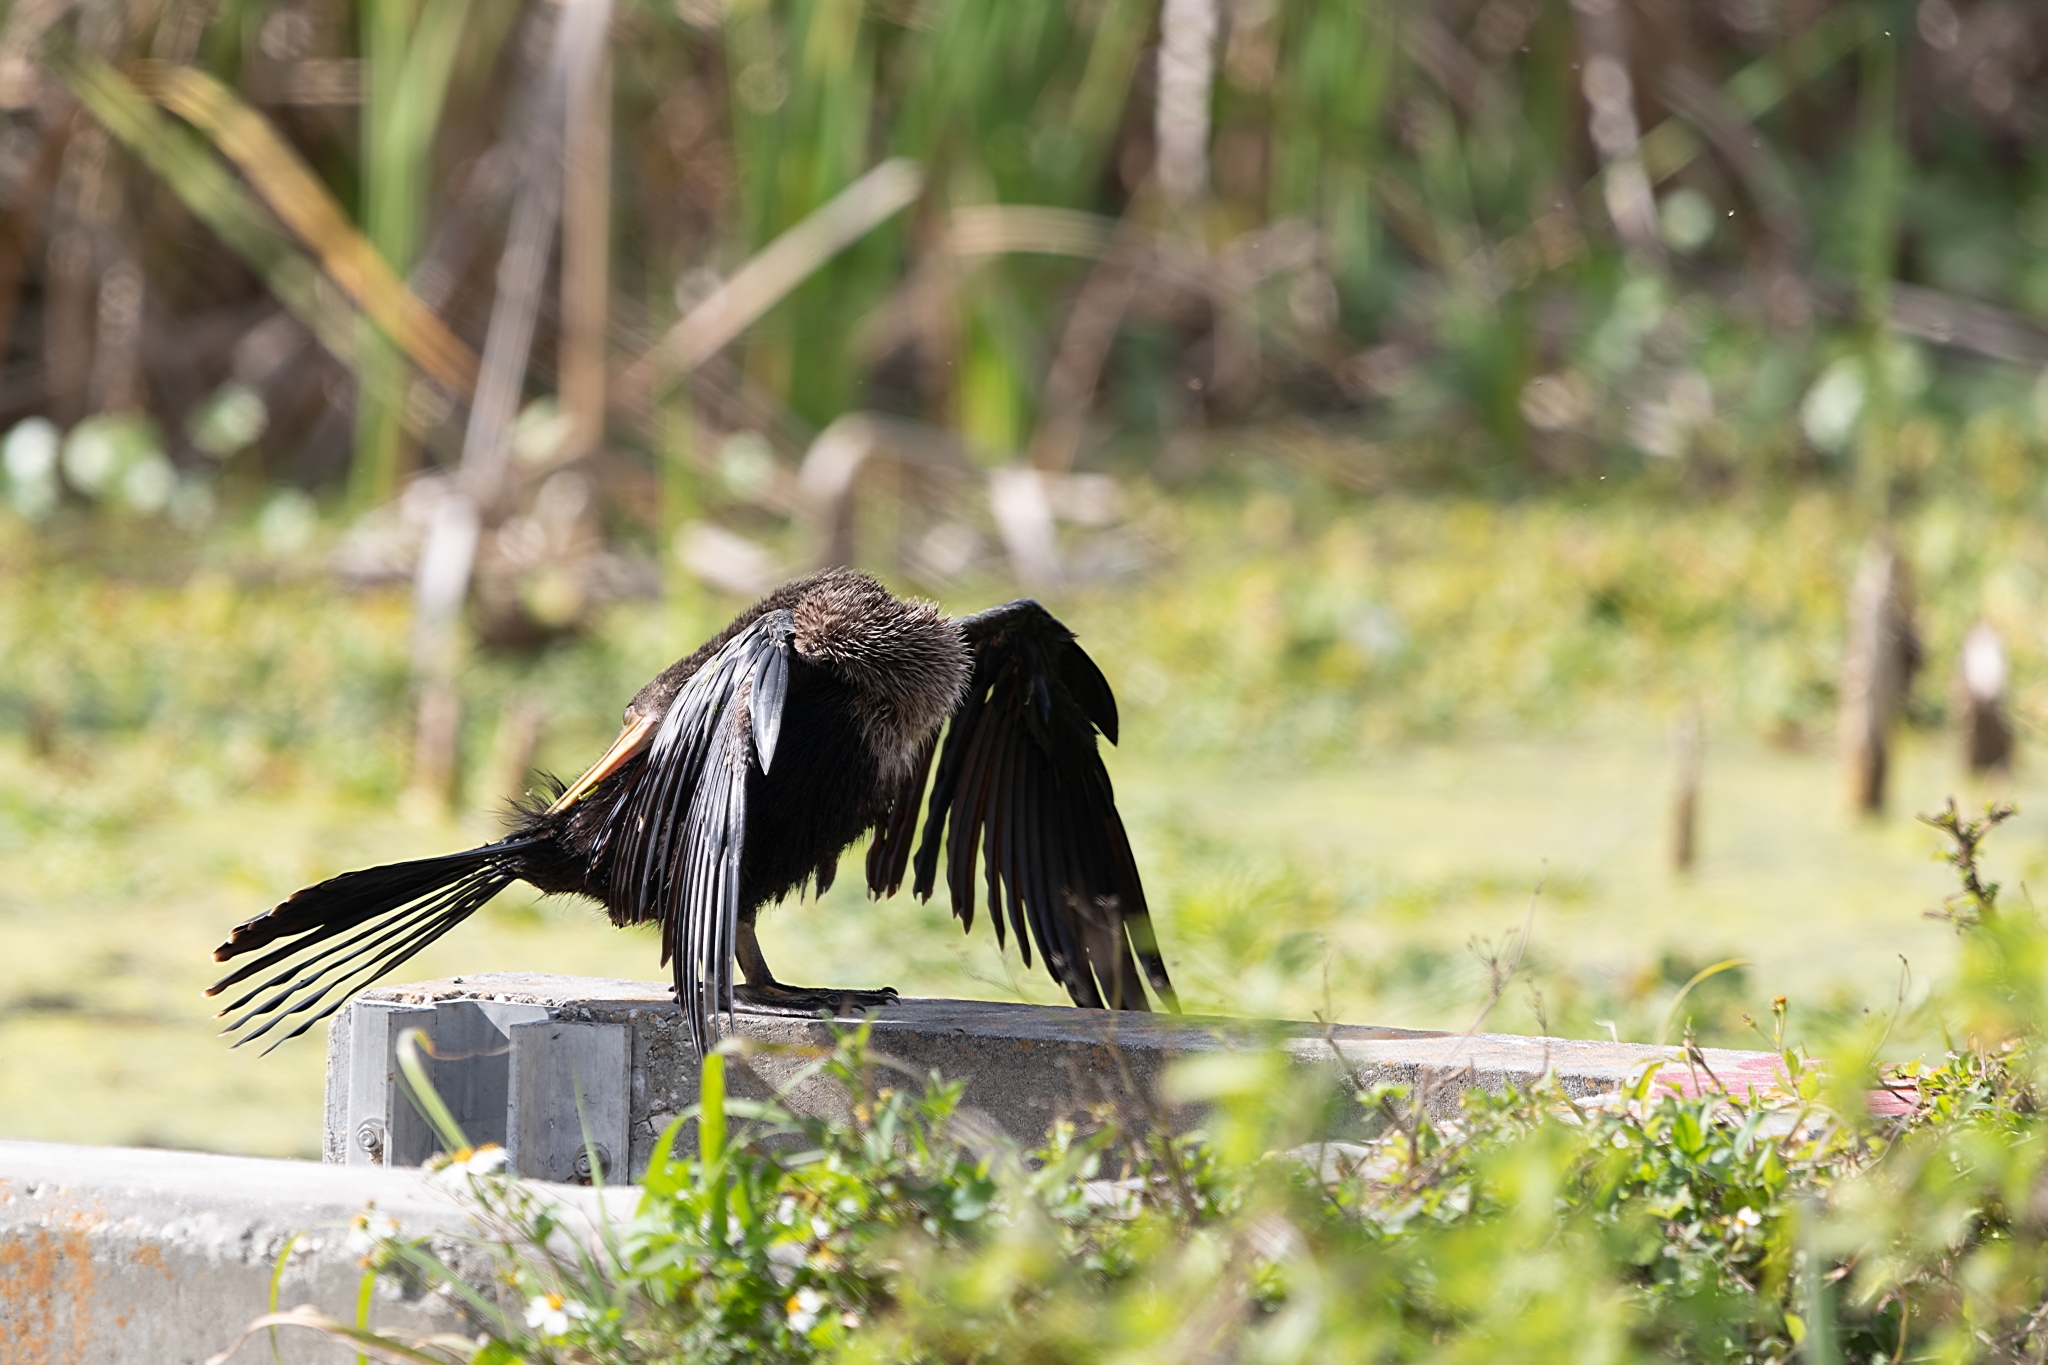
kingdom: Animalia
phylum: Chordata
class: Aves
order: Suliformes
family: Anhingidae
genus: Anhinga
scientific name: Anhinga anhinga
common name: Anhinga
